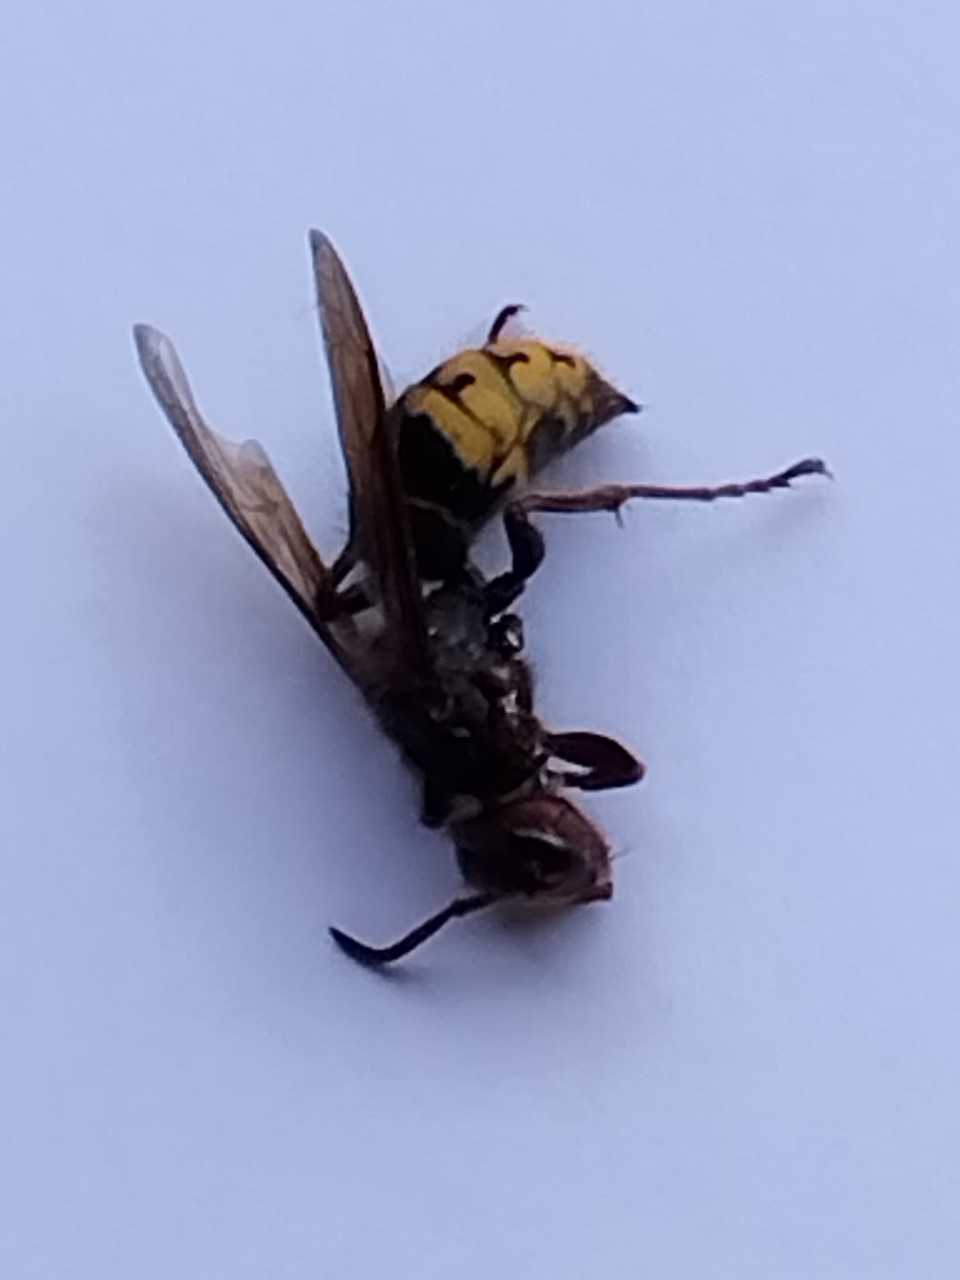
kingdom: Animalia
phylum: Arthropoda
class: Insecta
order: Hymenoptera
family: Vespidae
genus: Vespa
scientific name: Vespa crabro
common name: Hornet
